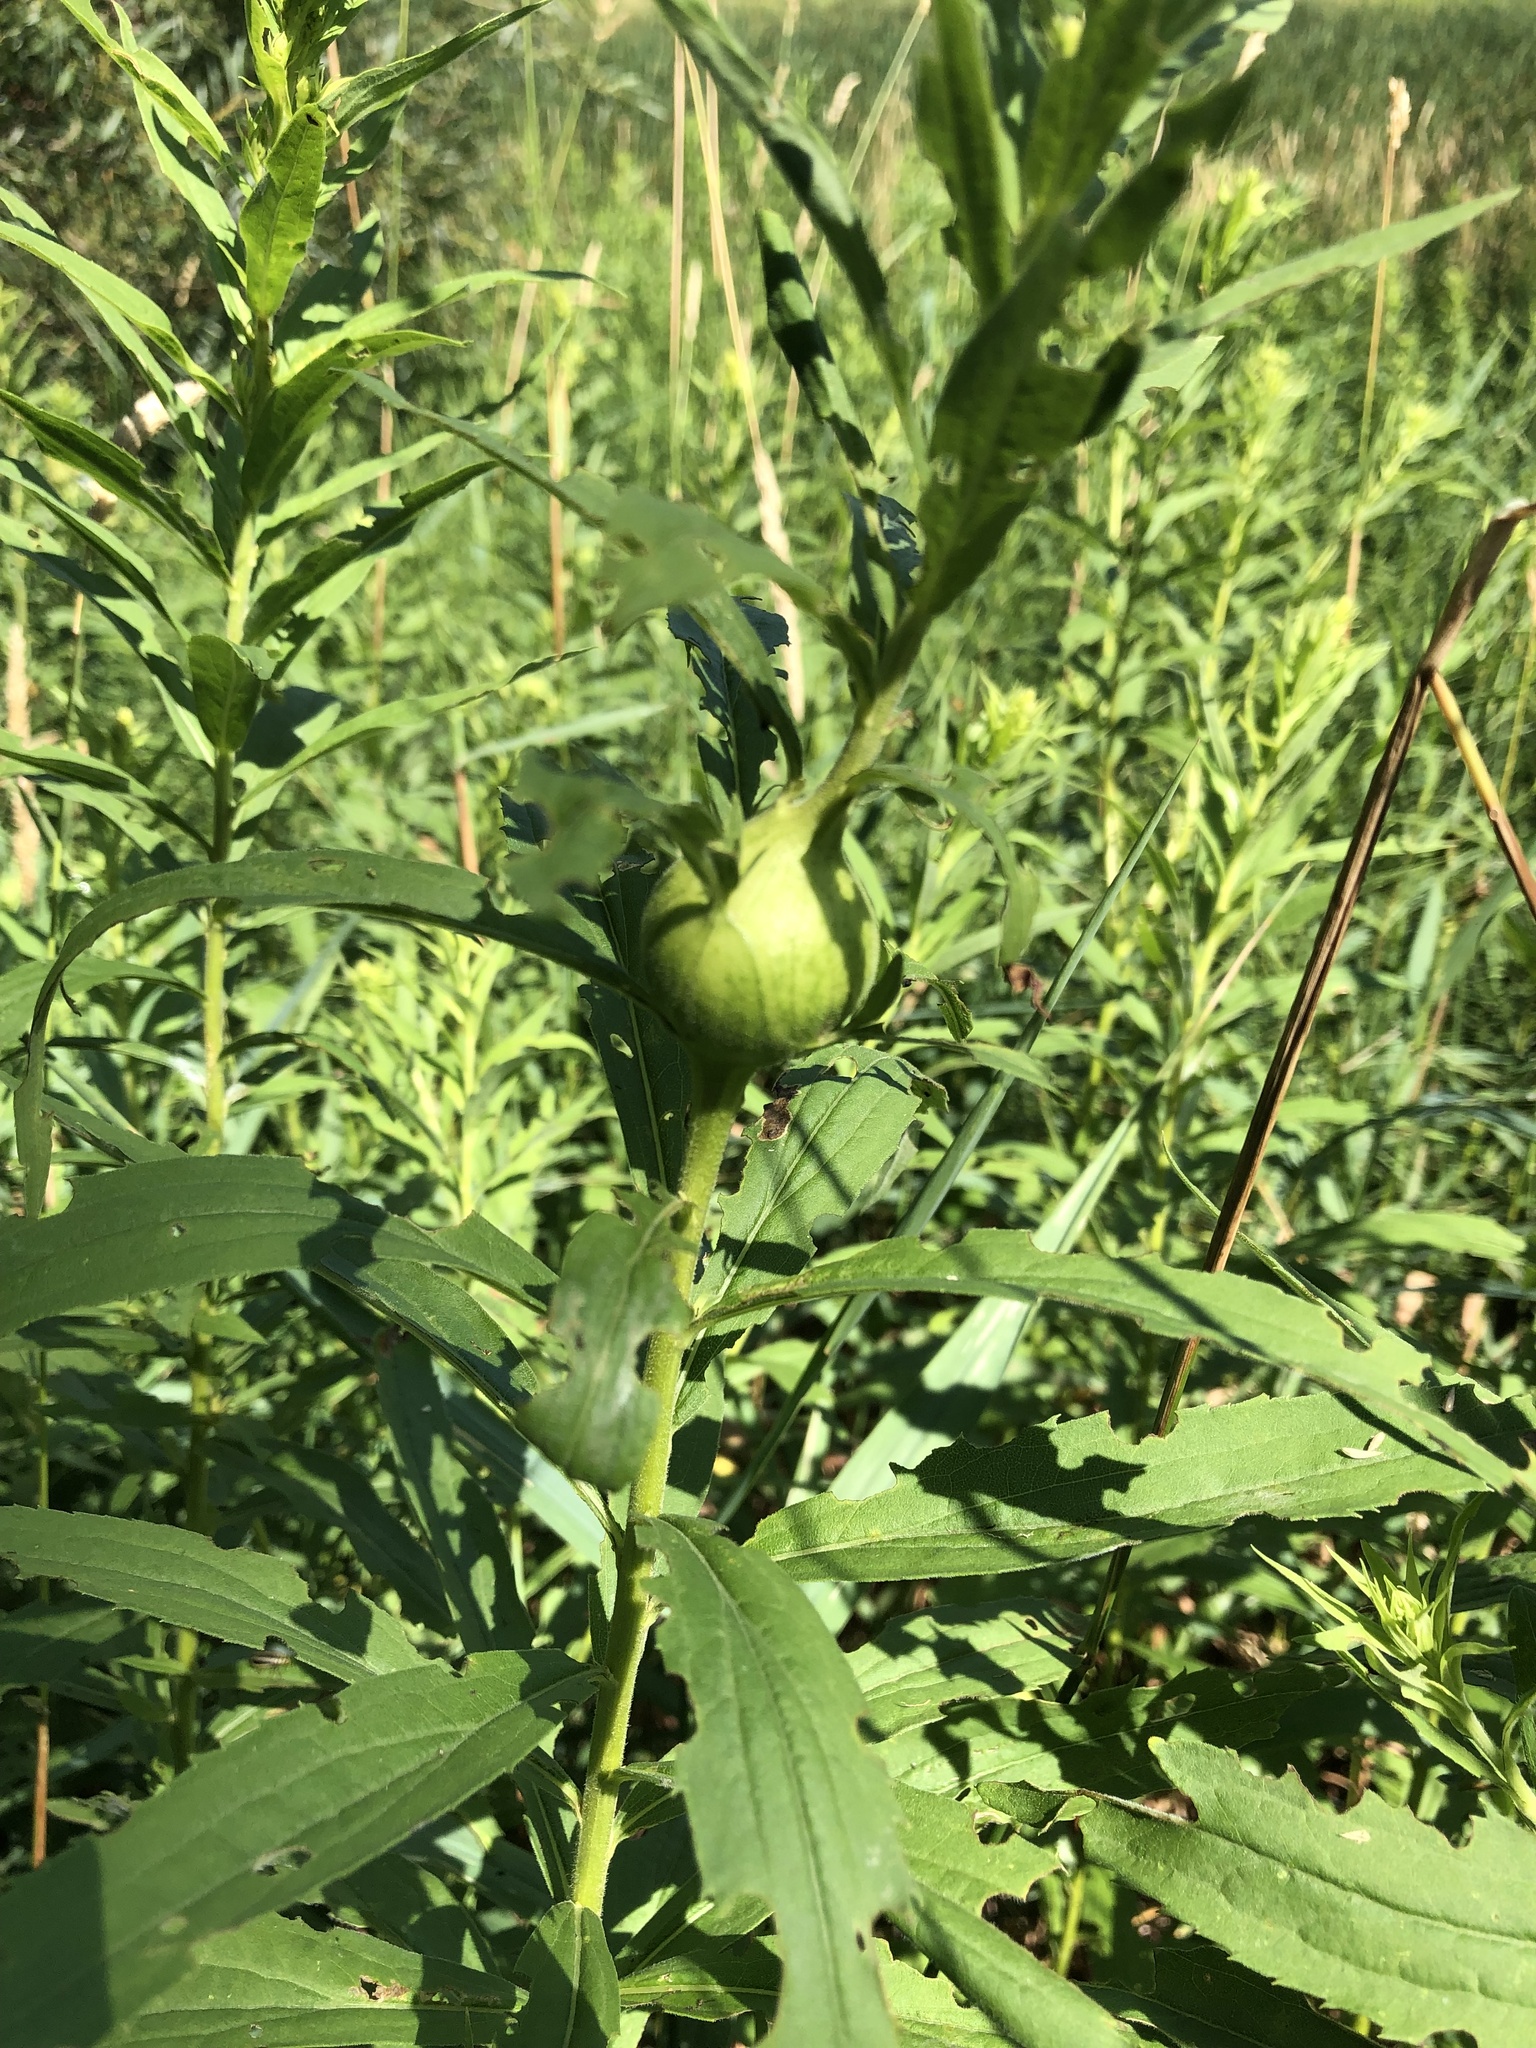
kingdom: Animalia
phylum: Arthropoda
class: Insecta
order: Diptera
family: Tephritidae
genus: Eurosta
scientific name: Eurosta solidaginis
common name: Goldenrod gall fly
